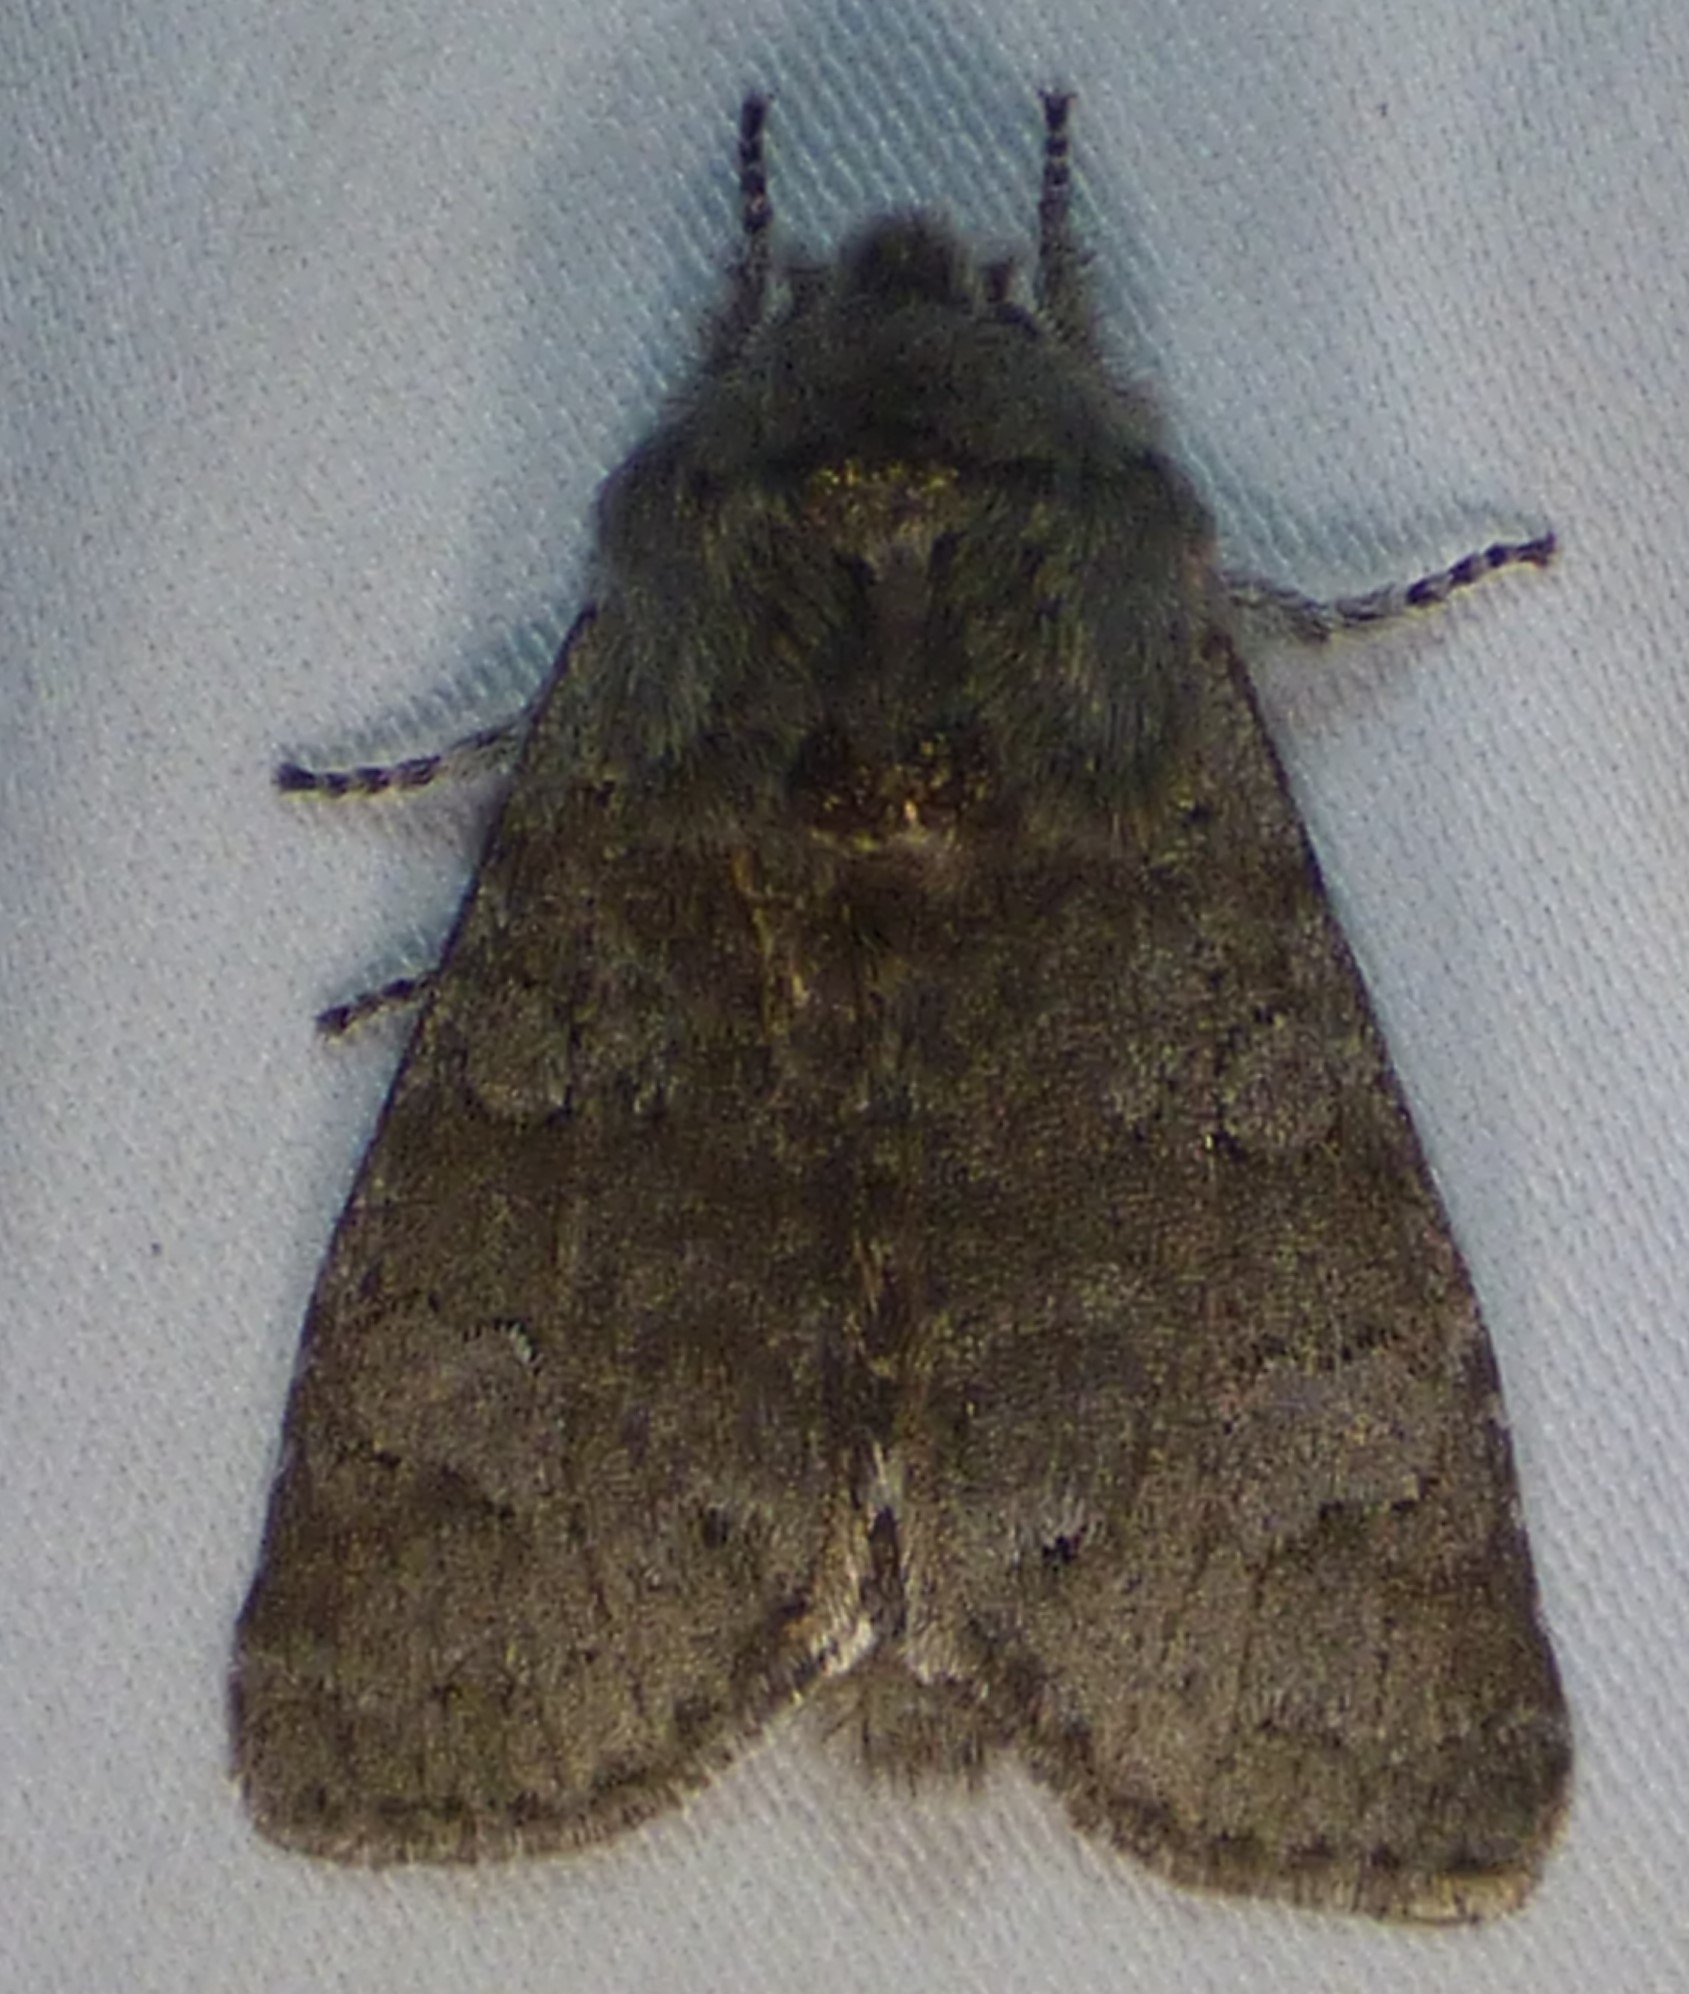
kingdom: Animalia
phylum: Arthropoda
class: Insecta
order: Lepidoptera
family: Noctuidae
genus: Psaphida
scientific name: Psaphida rolandi
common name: Roland's sallow
